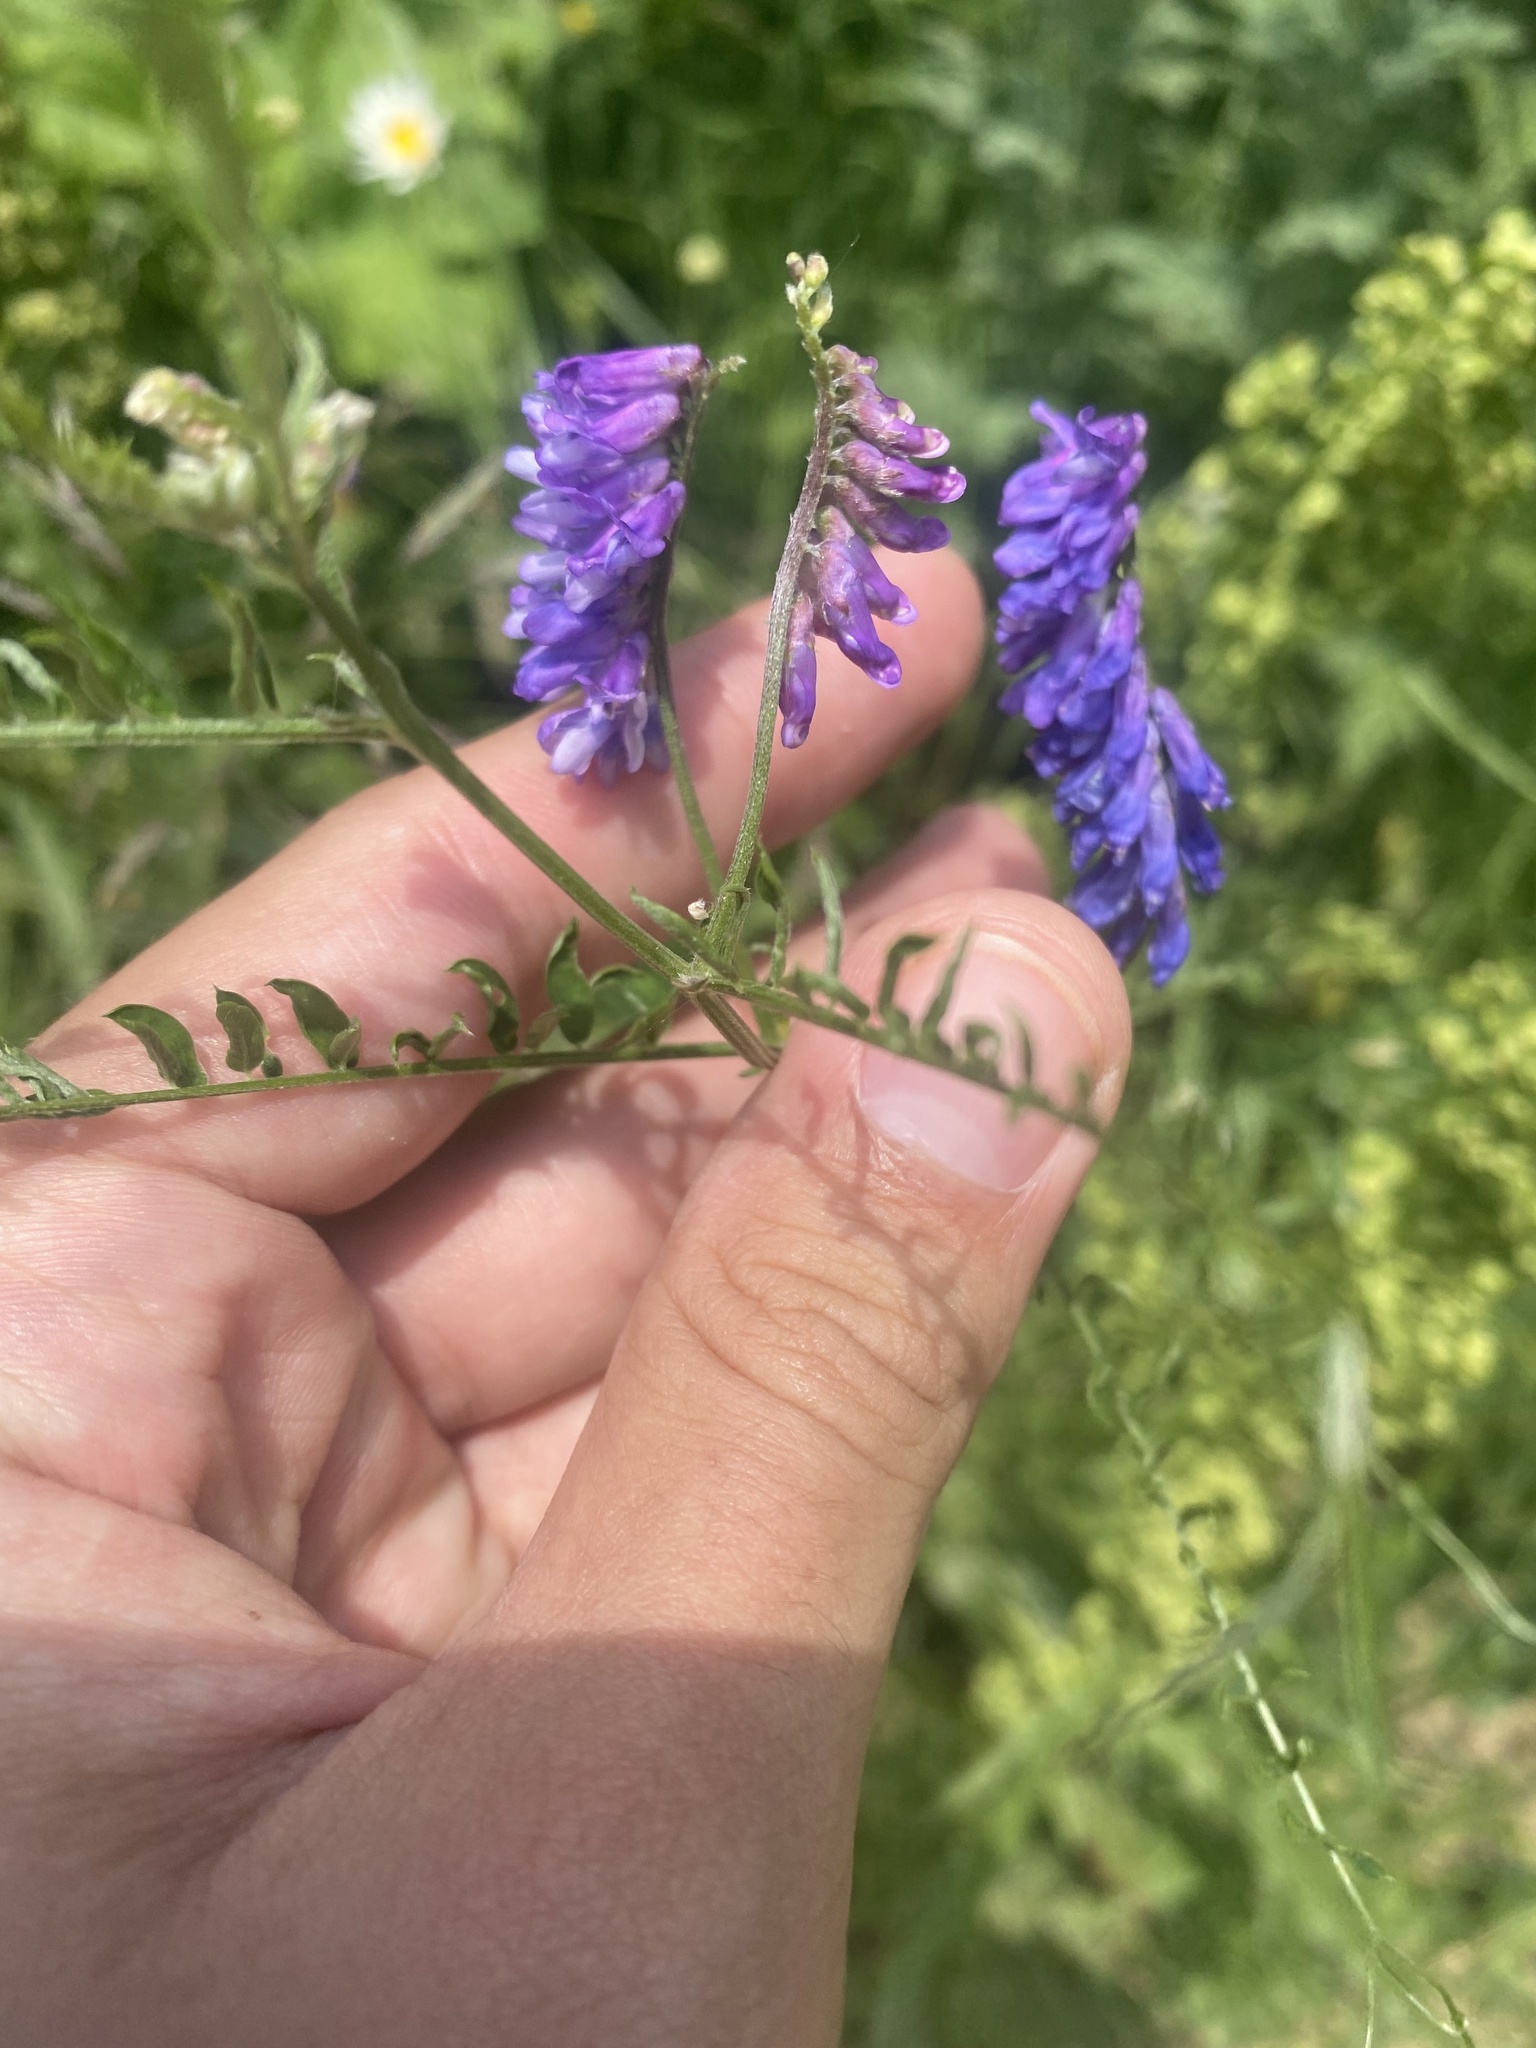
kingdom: Plantae
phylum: Tracheophyta
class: Magnoliopsida
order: Fabales
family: Fabaceae
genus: Vicia
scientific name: Vicia cracca
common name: Bird vetch
